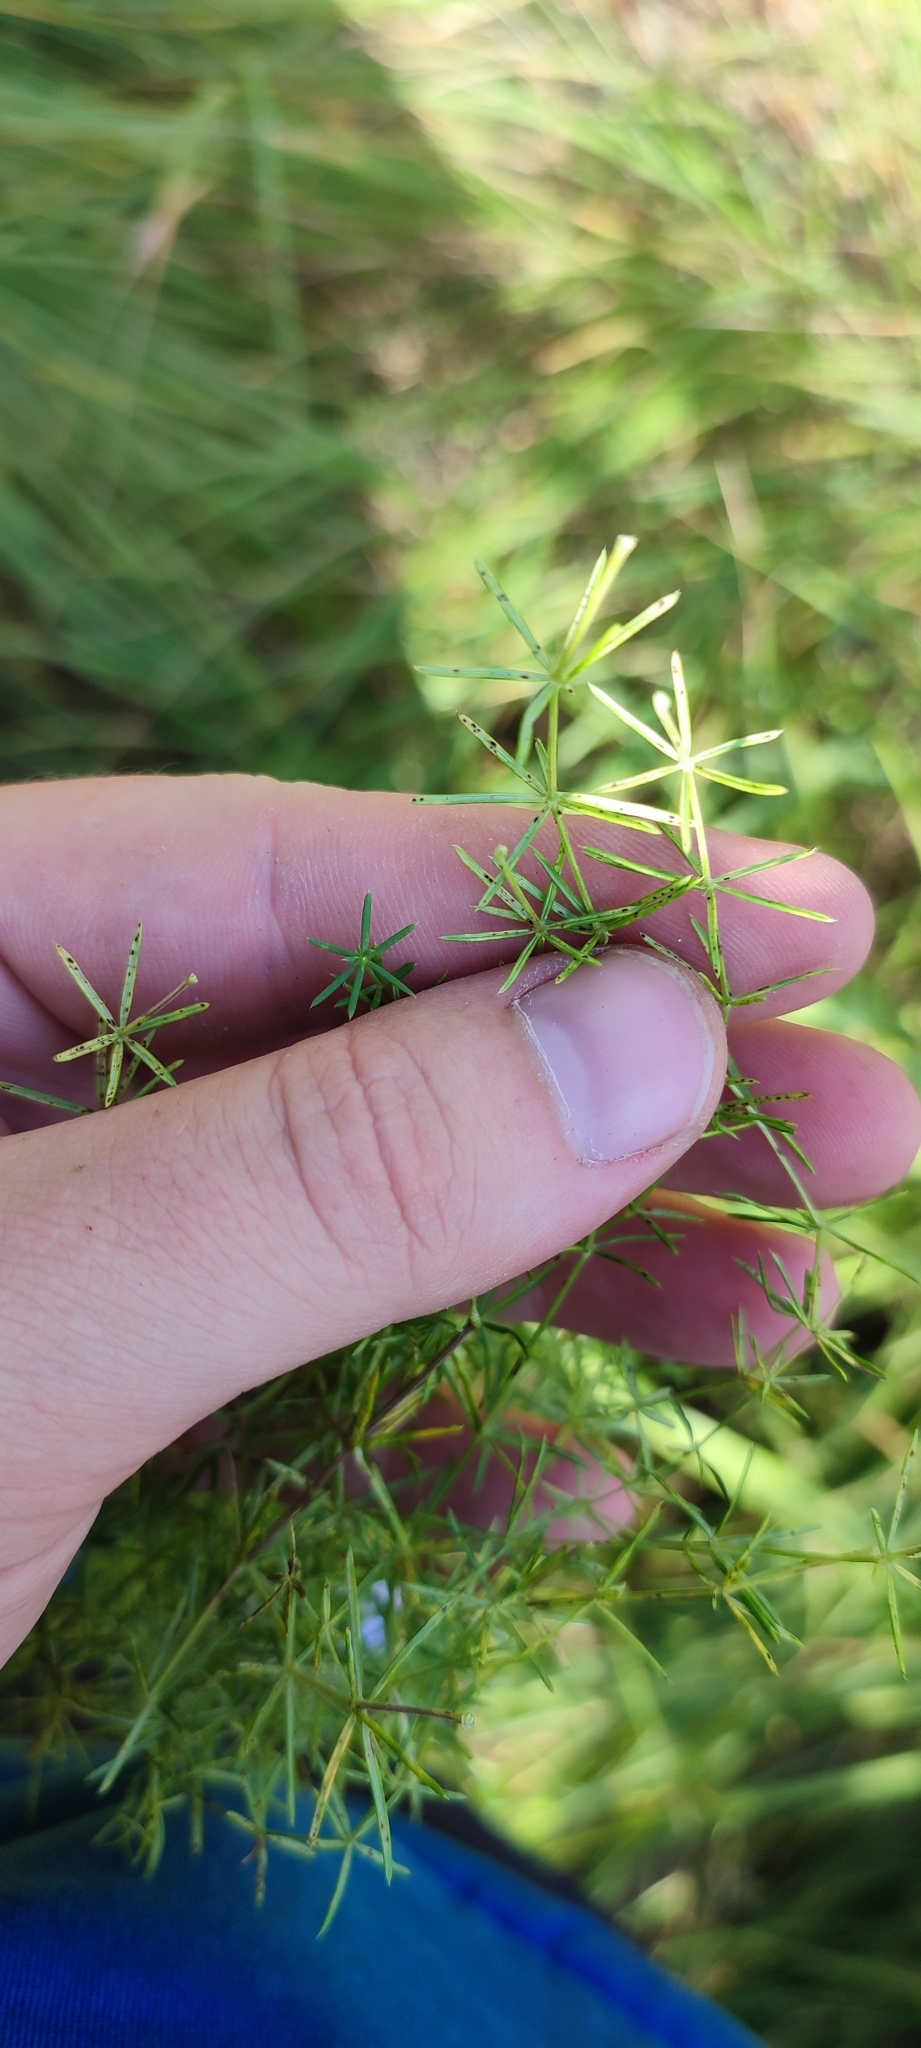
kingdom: Plantae
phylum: Tracheophyta
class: Magnoliopsida
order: Gentianales
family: Rubiaceae
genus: Galium
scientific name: Galium verum
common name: Lady's bedstraw
